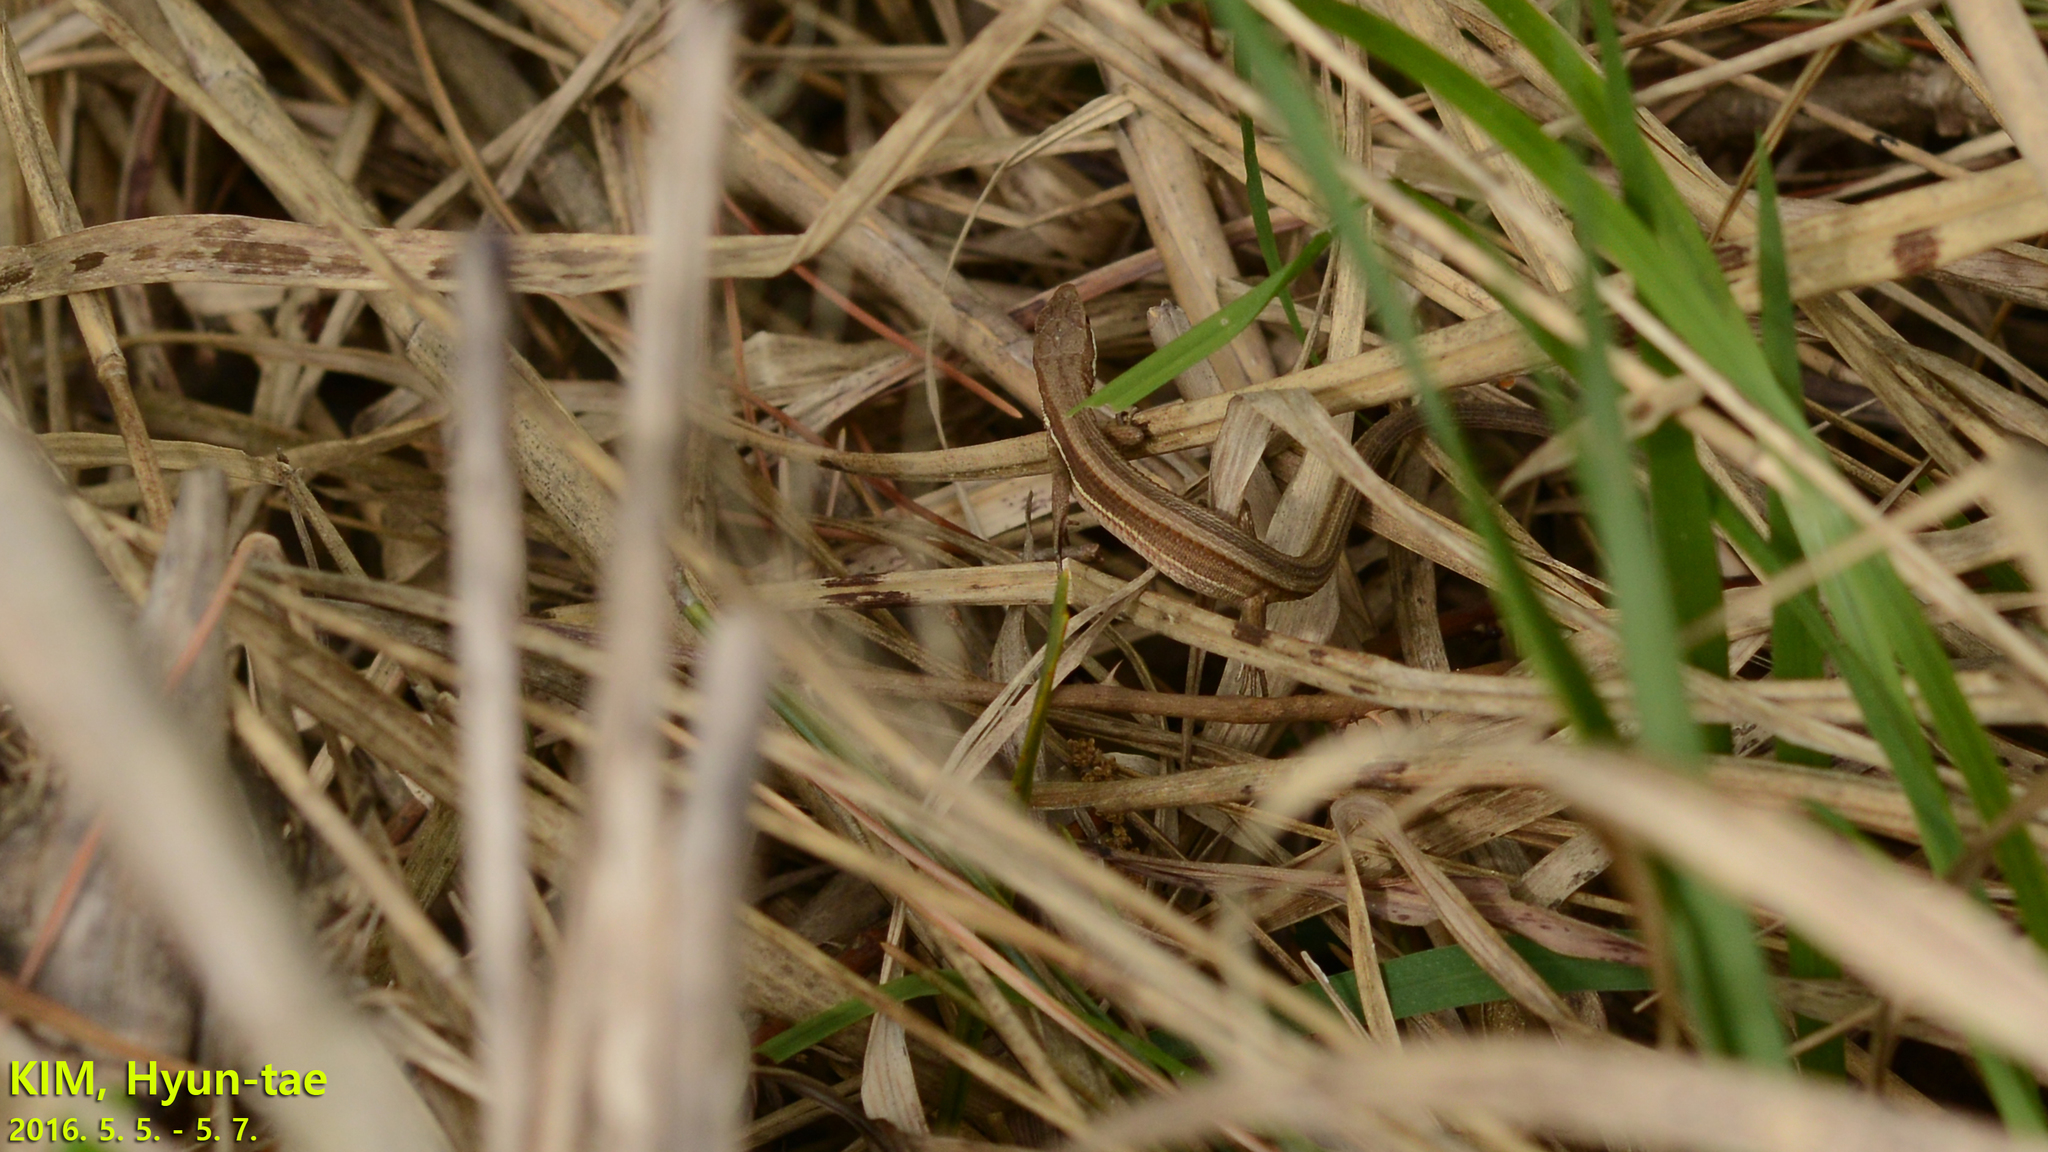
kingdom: Animalia
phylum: Chordata
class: Squamata
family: Lacertidae
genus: Takydromus
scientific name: Takydromus wolteri
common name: Mountain grass lizard
